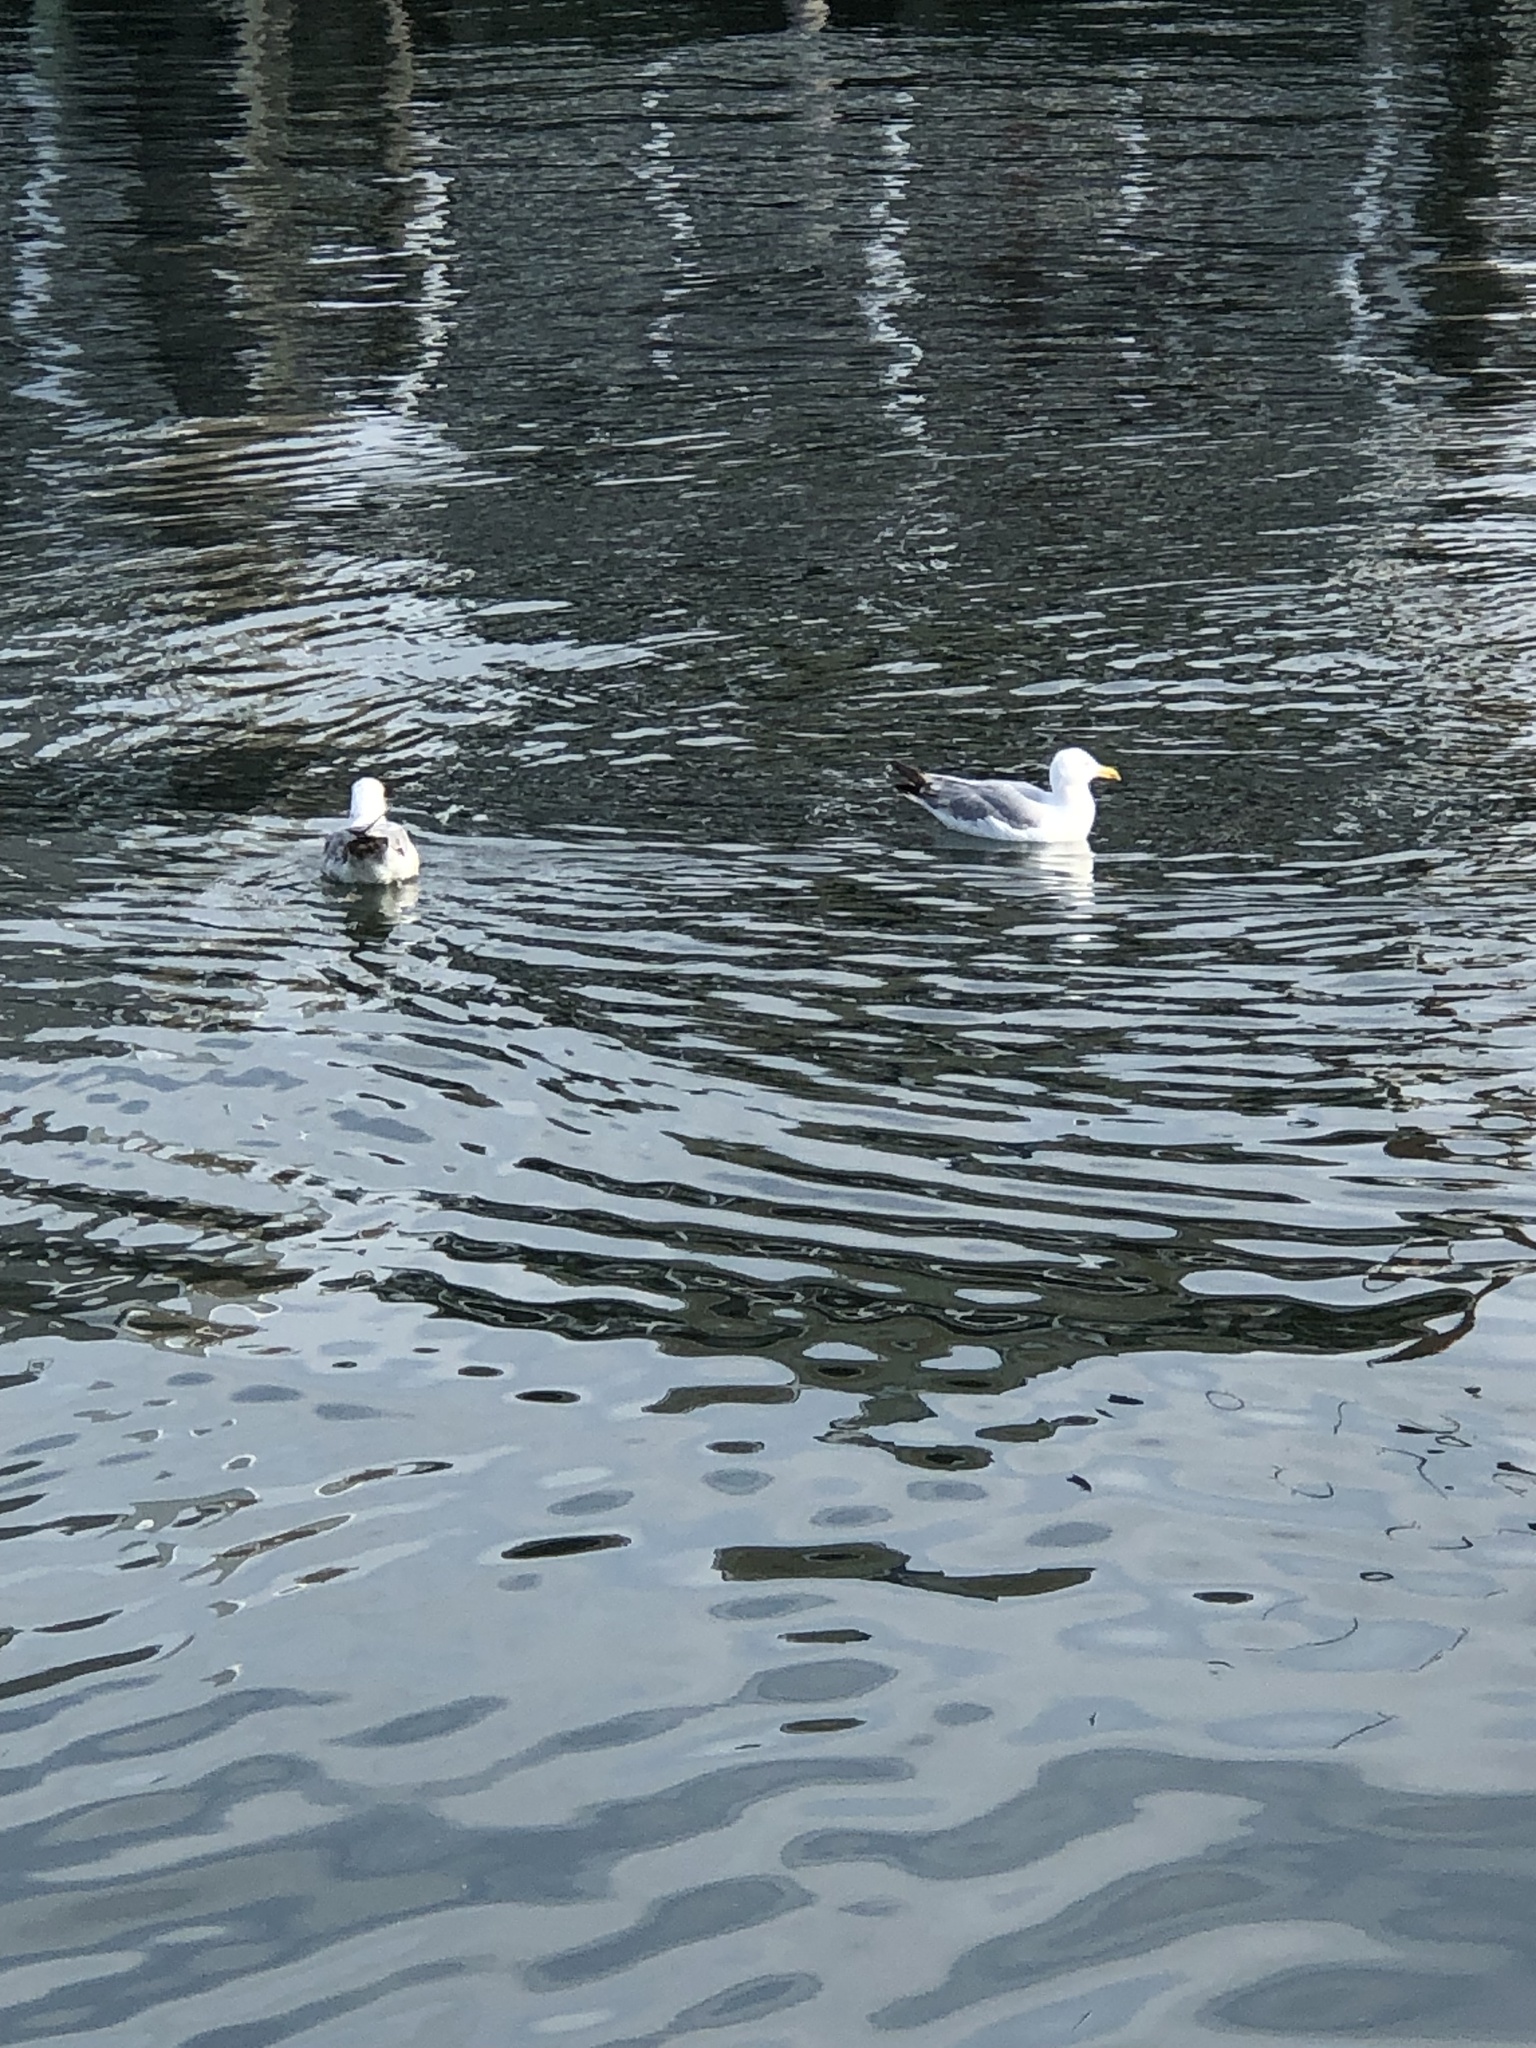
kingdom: Animalia
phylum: Chordata
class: Aves
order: Charadriiformes
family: Laridae
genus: Larus
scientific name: Larus argentatus
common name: Herring gull
